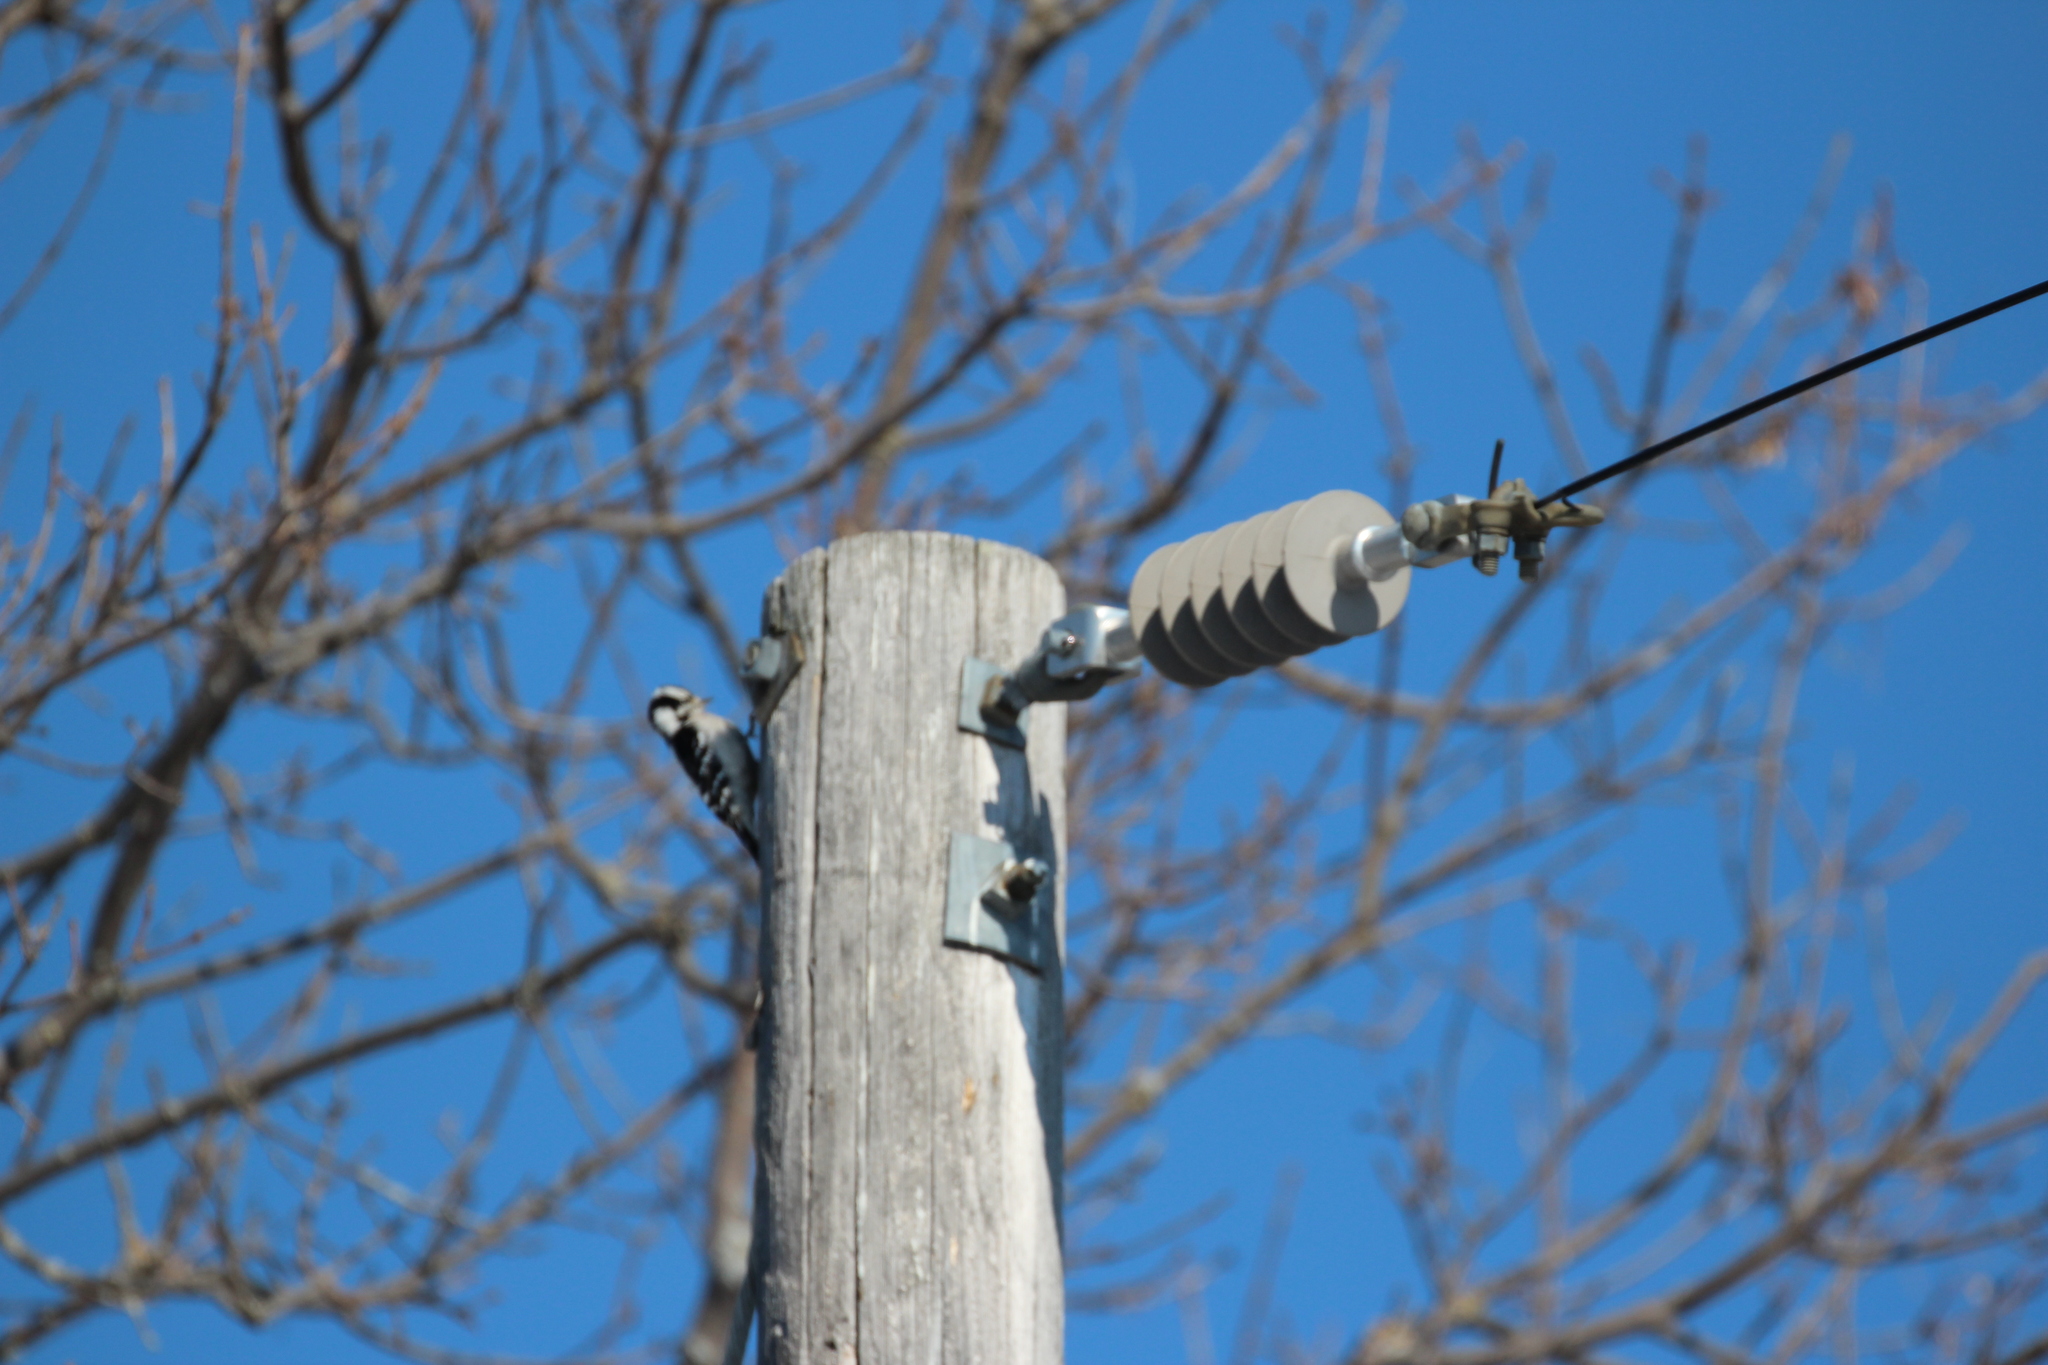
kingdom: Animalia
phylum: Chordata
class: Aves
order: Piciformes
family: Picidae
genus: Dryobates
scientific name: Dryobates pubescens
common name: Downy woodpecker
